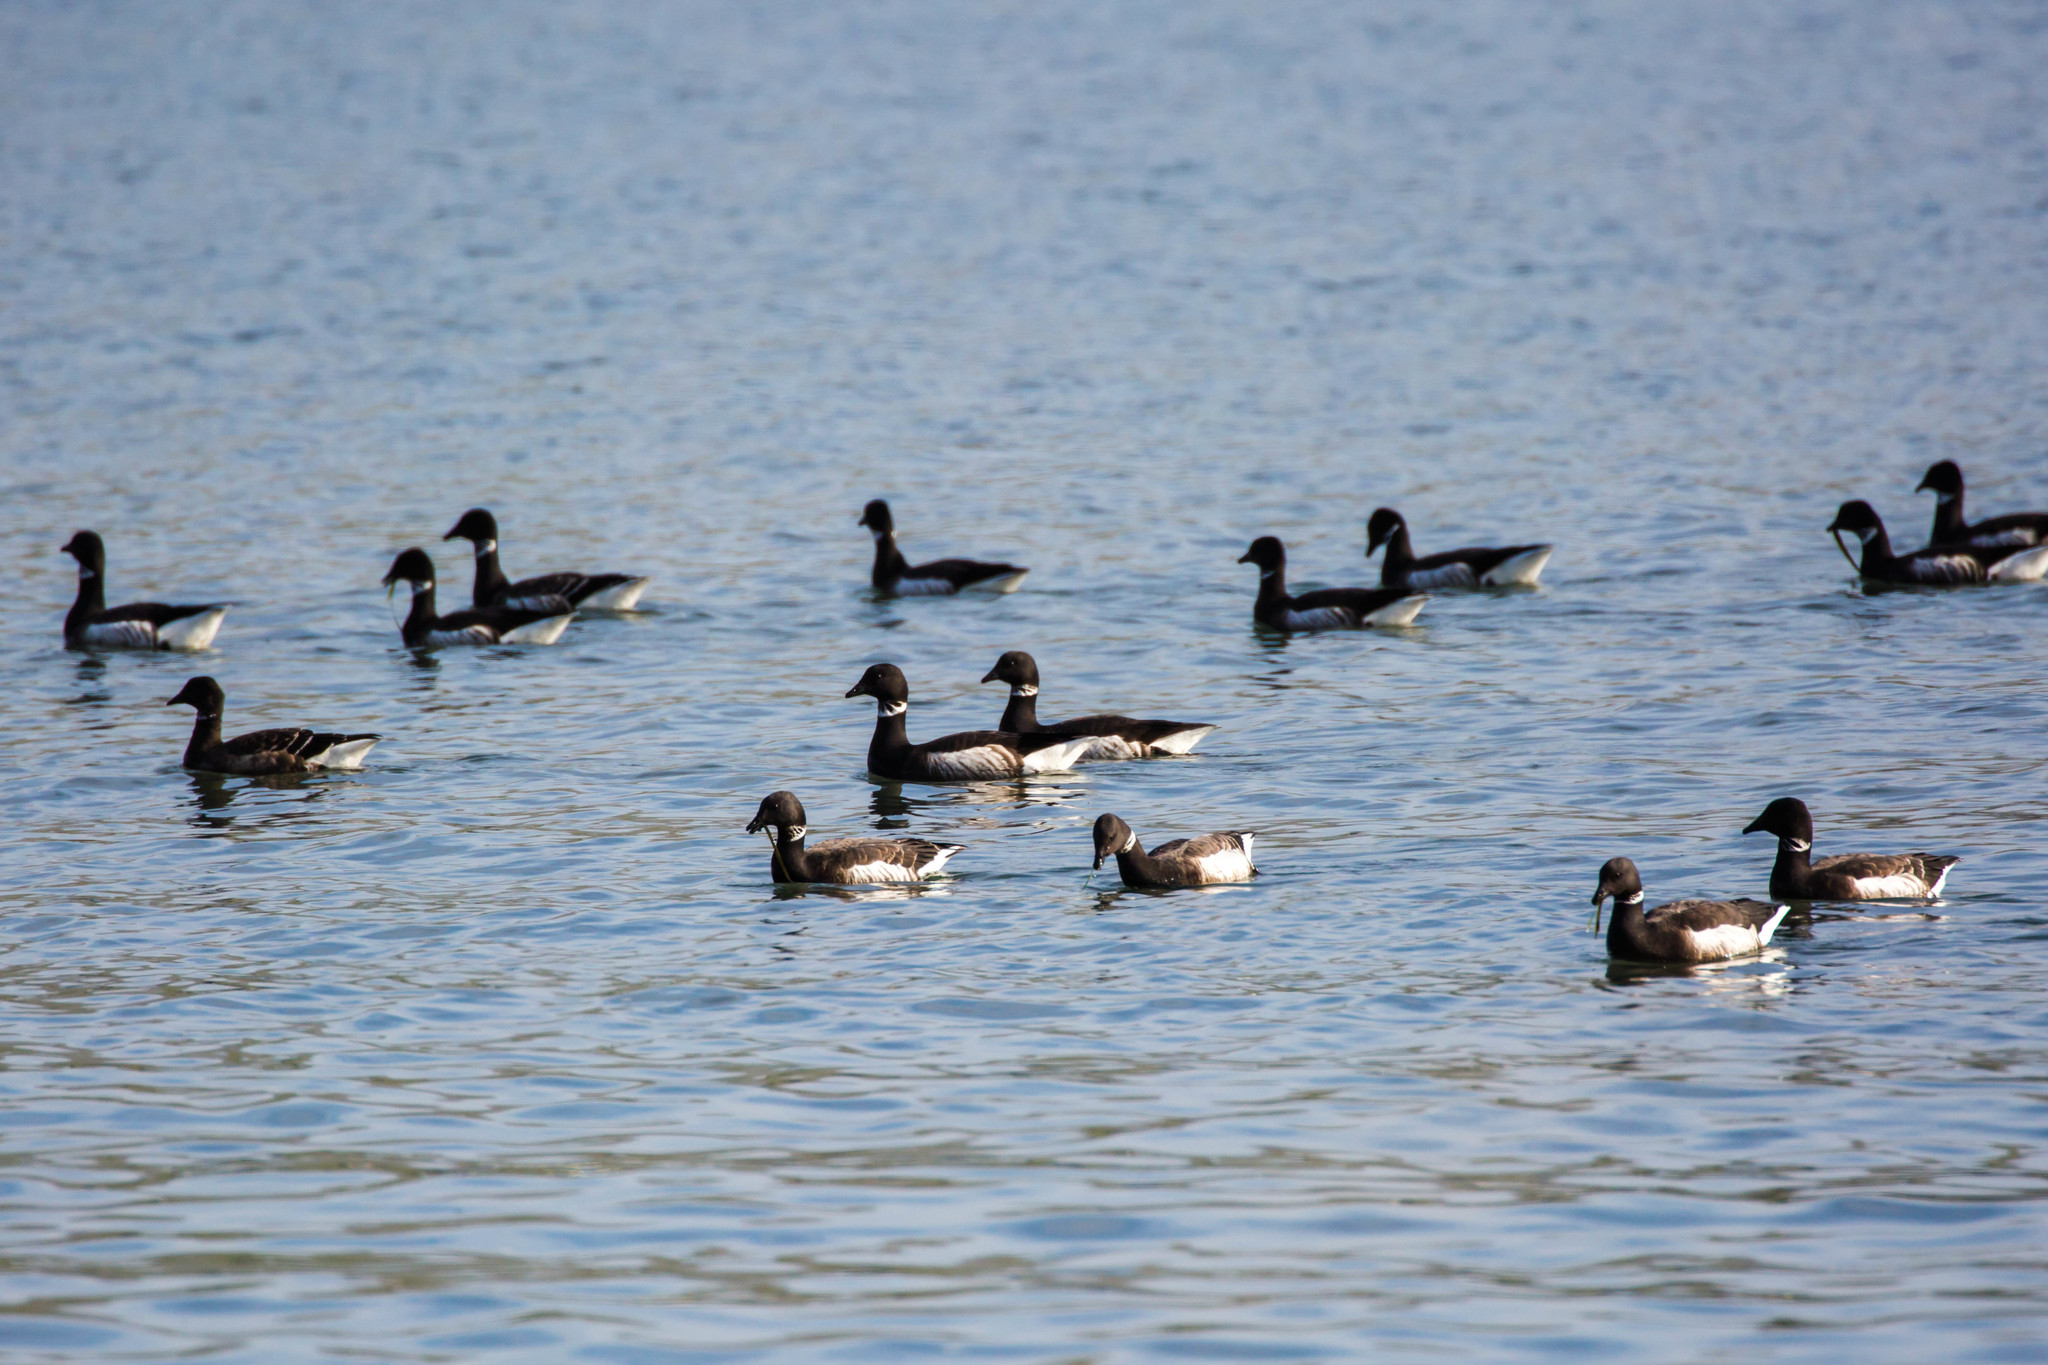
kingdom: Animalia
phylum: Chordata
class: Aves
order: Anseriformes
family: Anatidae
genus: Branta
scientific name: Branta bernicla
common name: Brant goose
